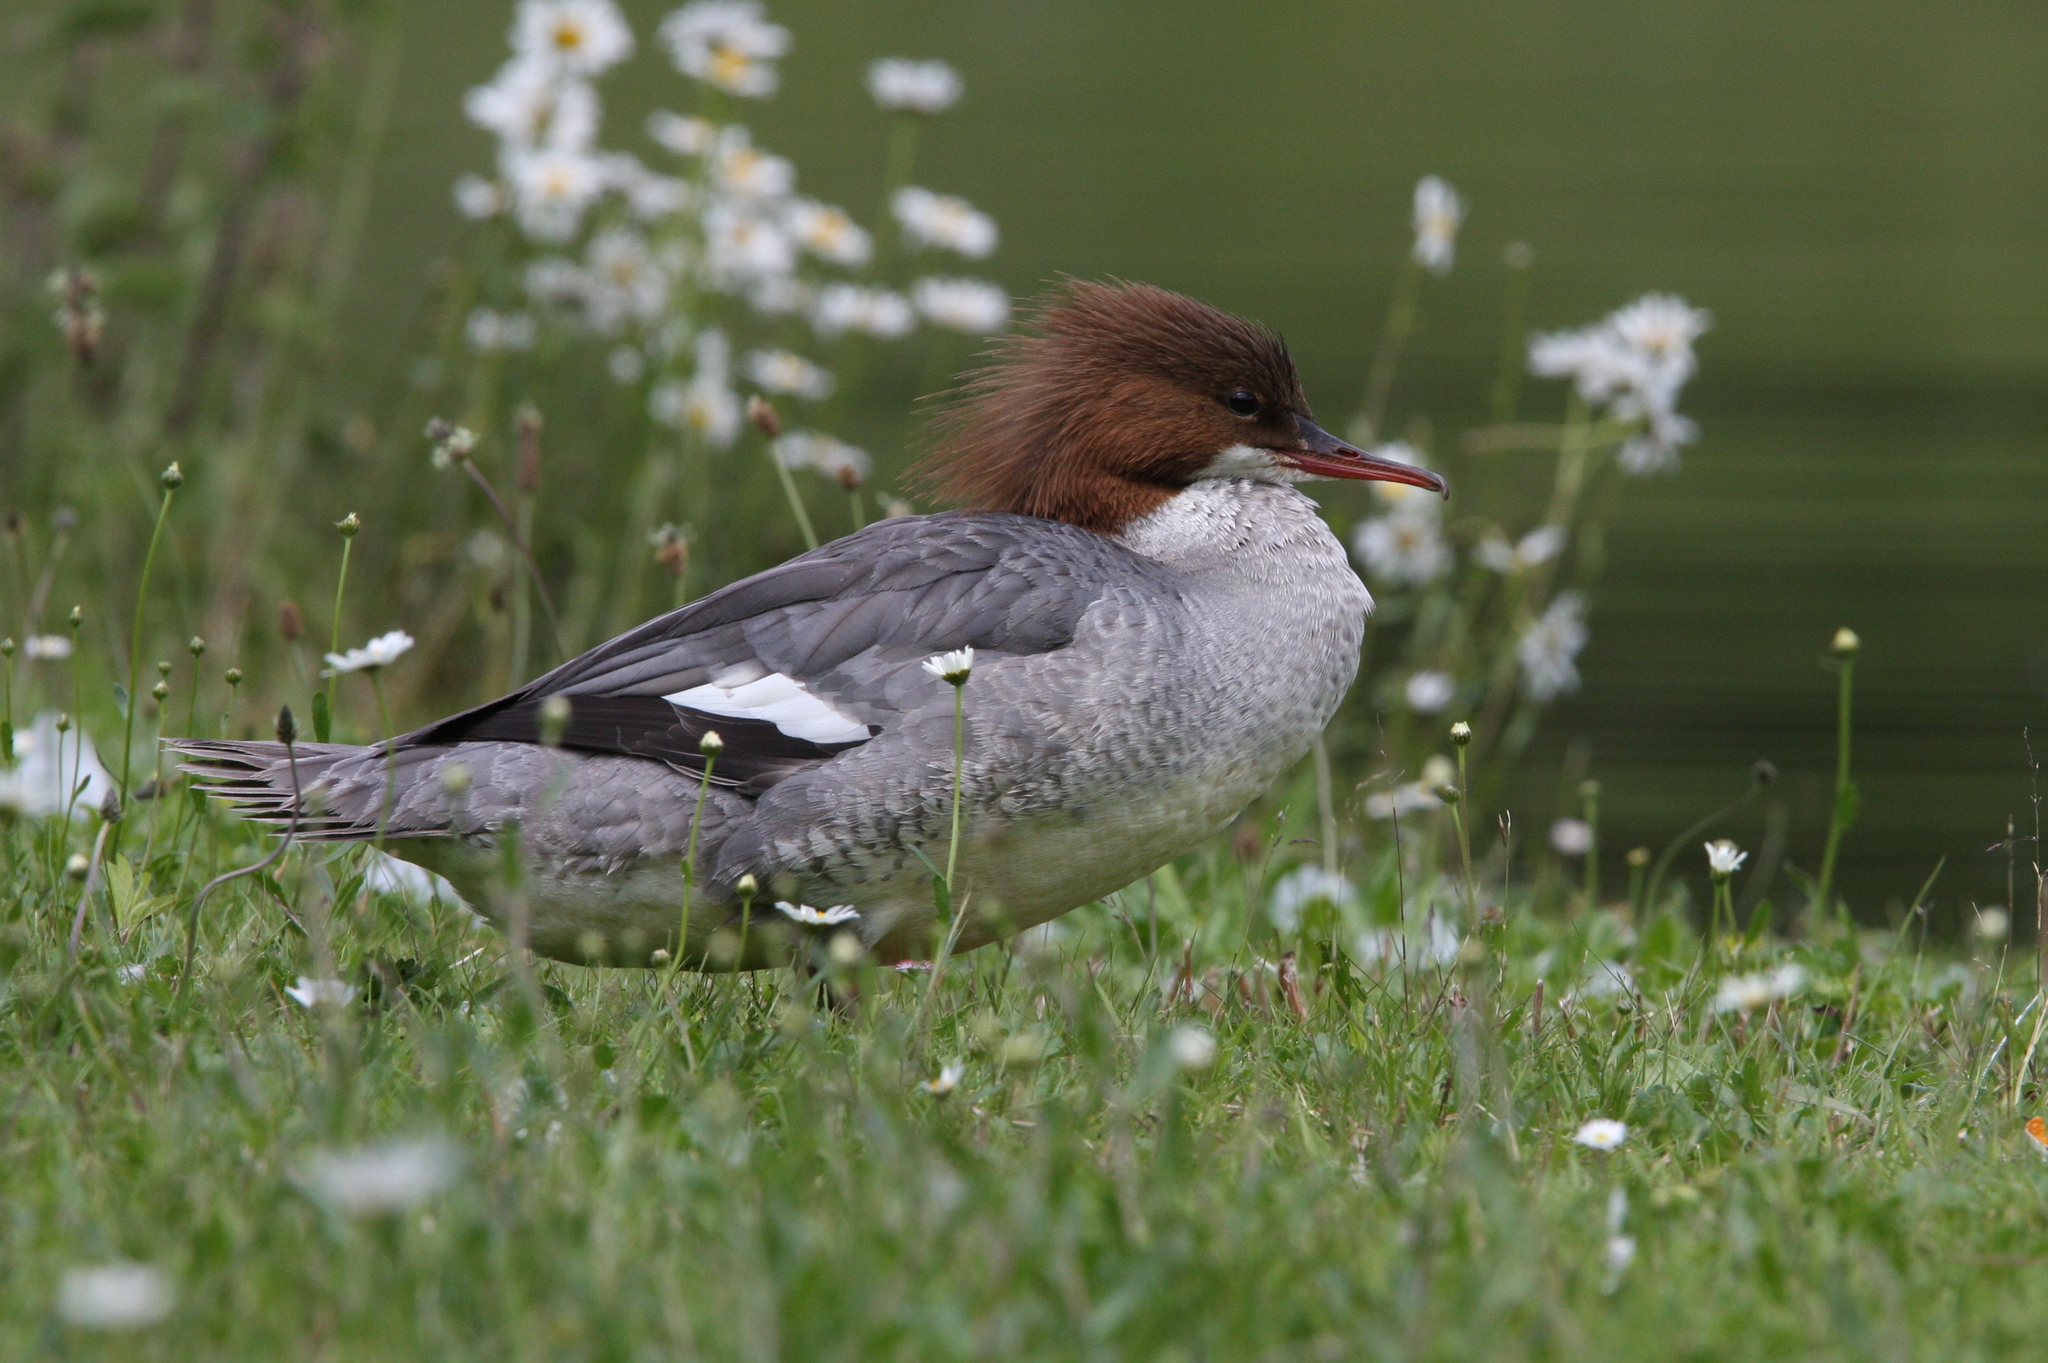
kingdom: Animalia
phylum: Chordata
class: Aves
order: Anseriformes
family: Anatidae
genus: Mergus
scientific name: Mergus merganser
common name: Common merganser
